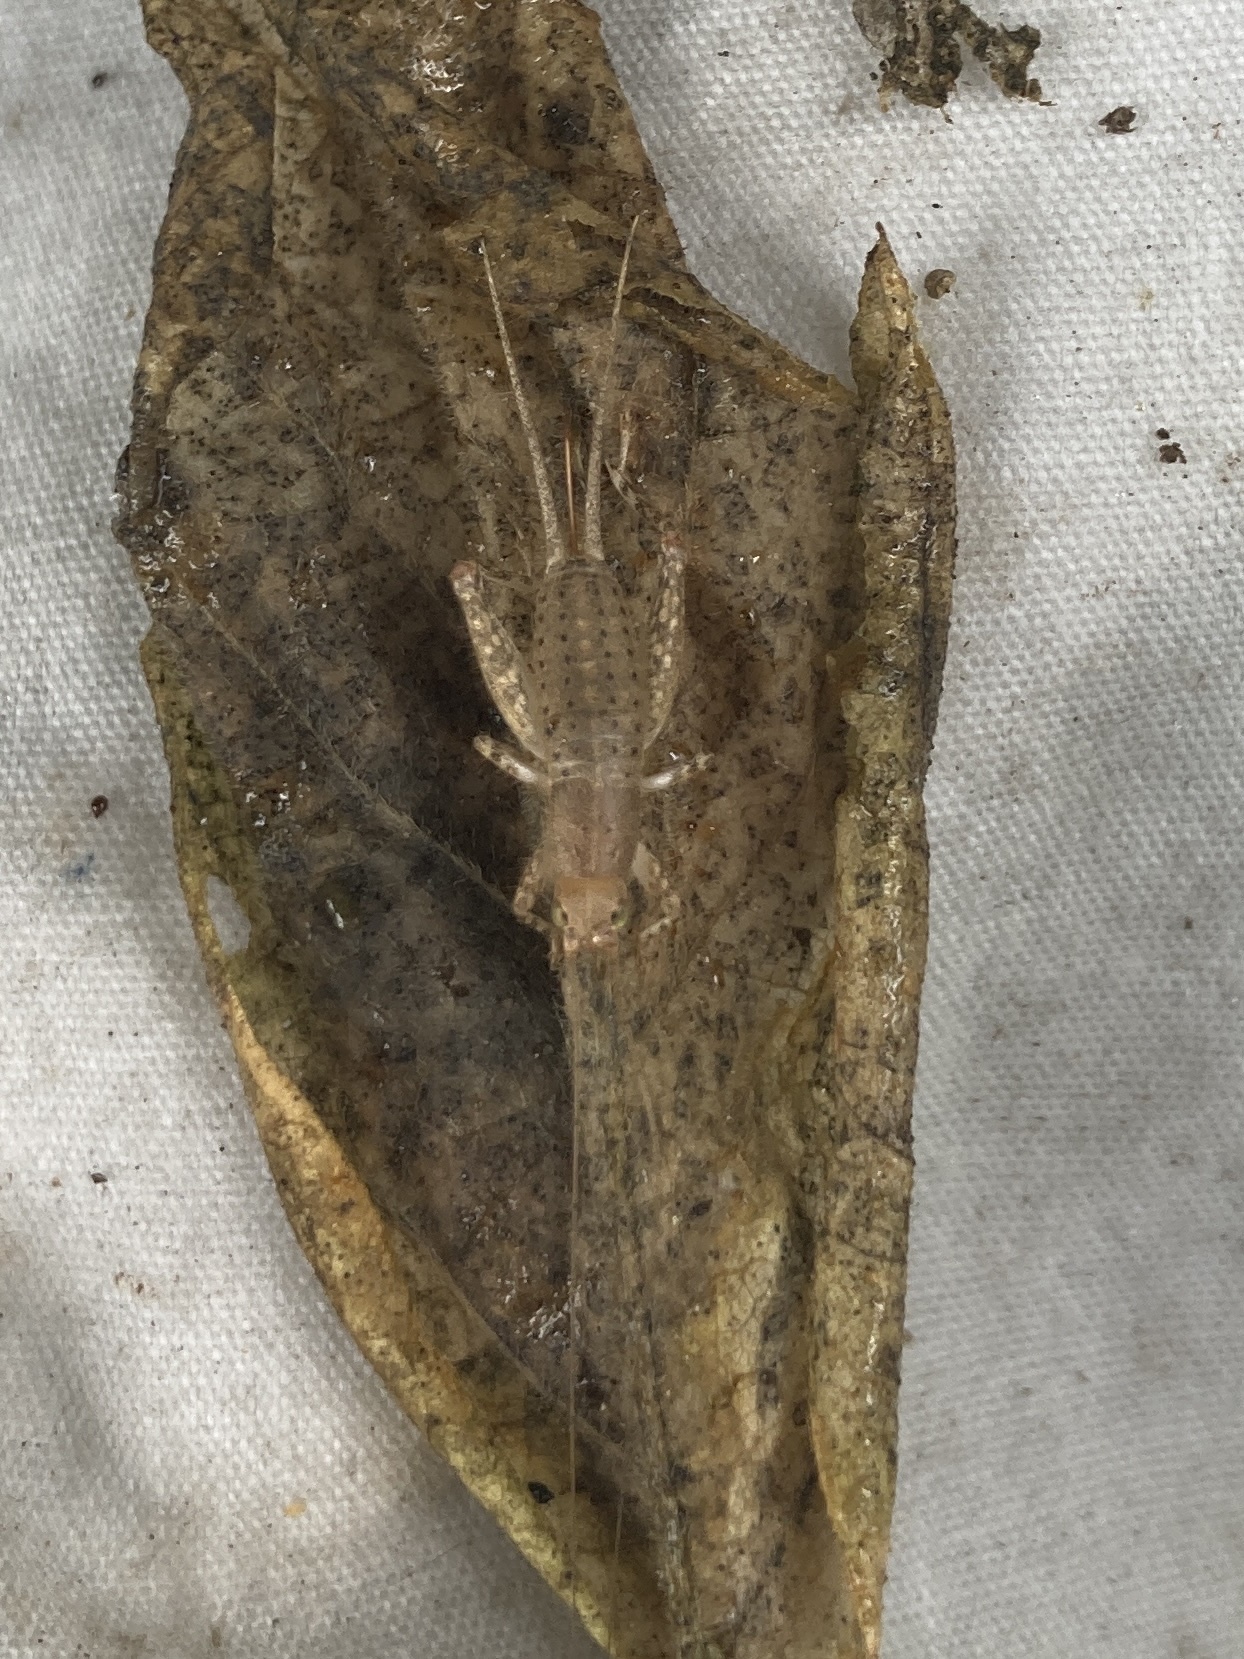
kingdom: Animalia
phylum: Arthropoda
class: Insecta
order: Orthoptera
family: Mogoplistidae
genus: Ornebius
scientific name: Ornebius novarae
